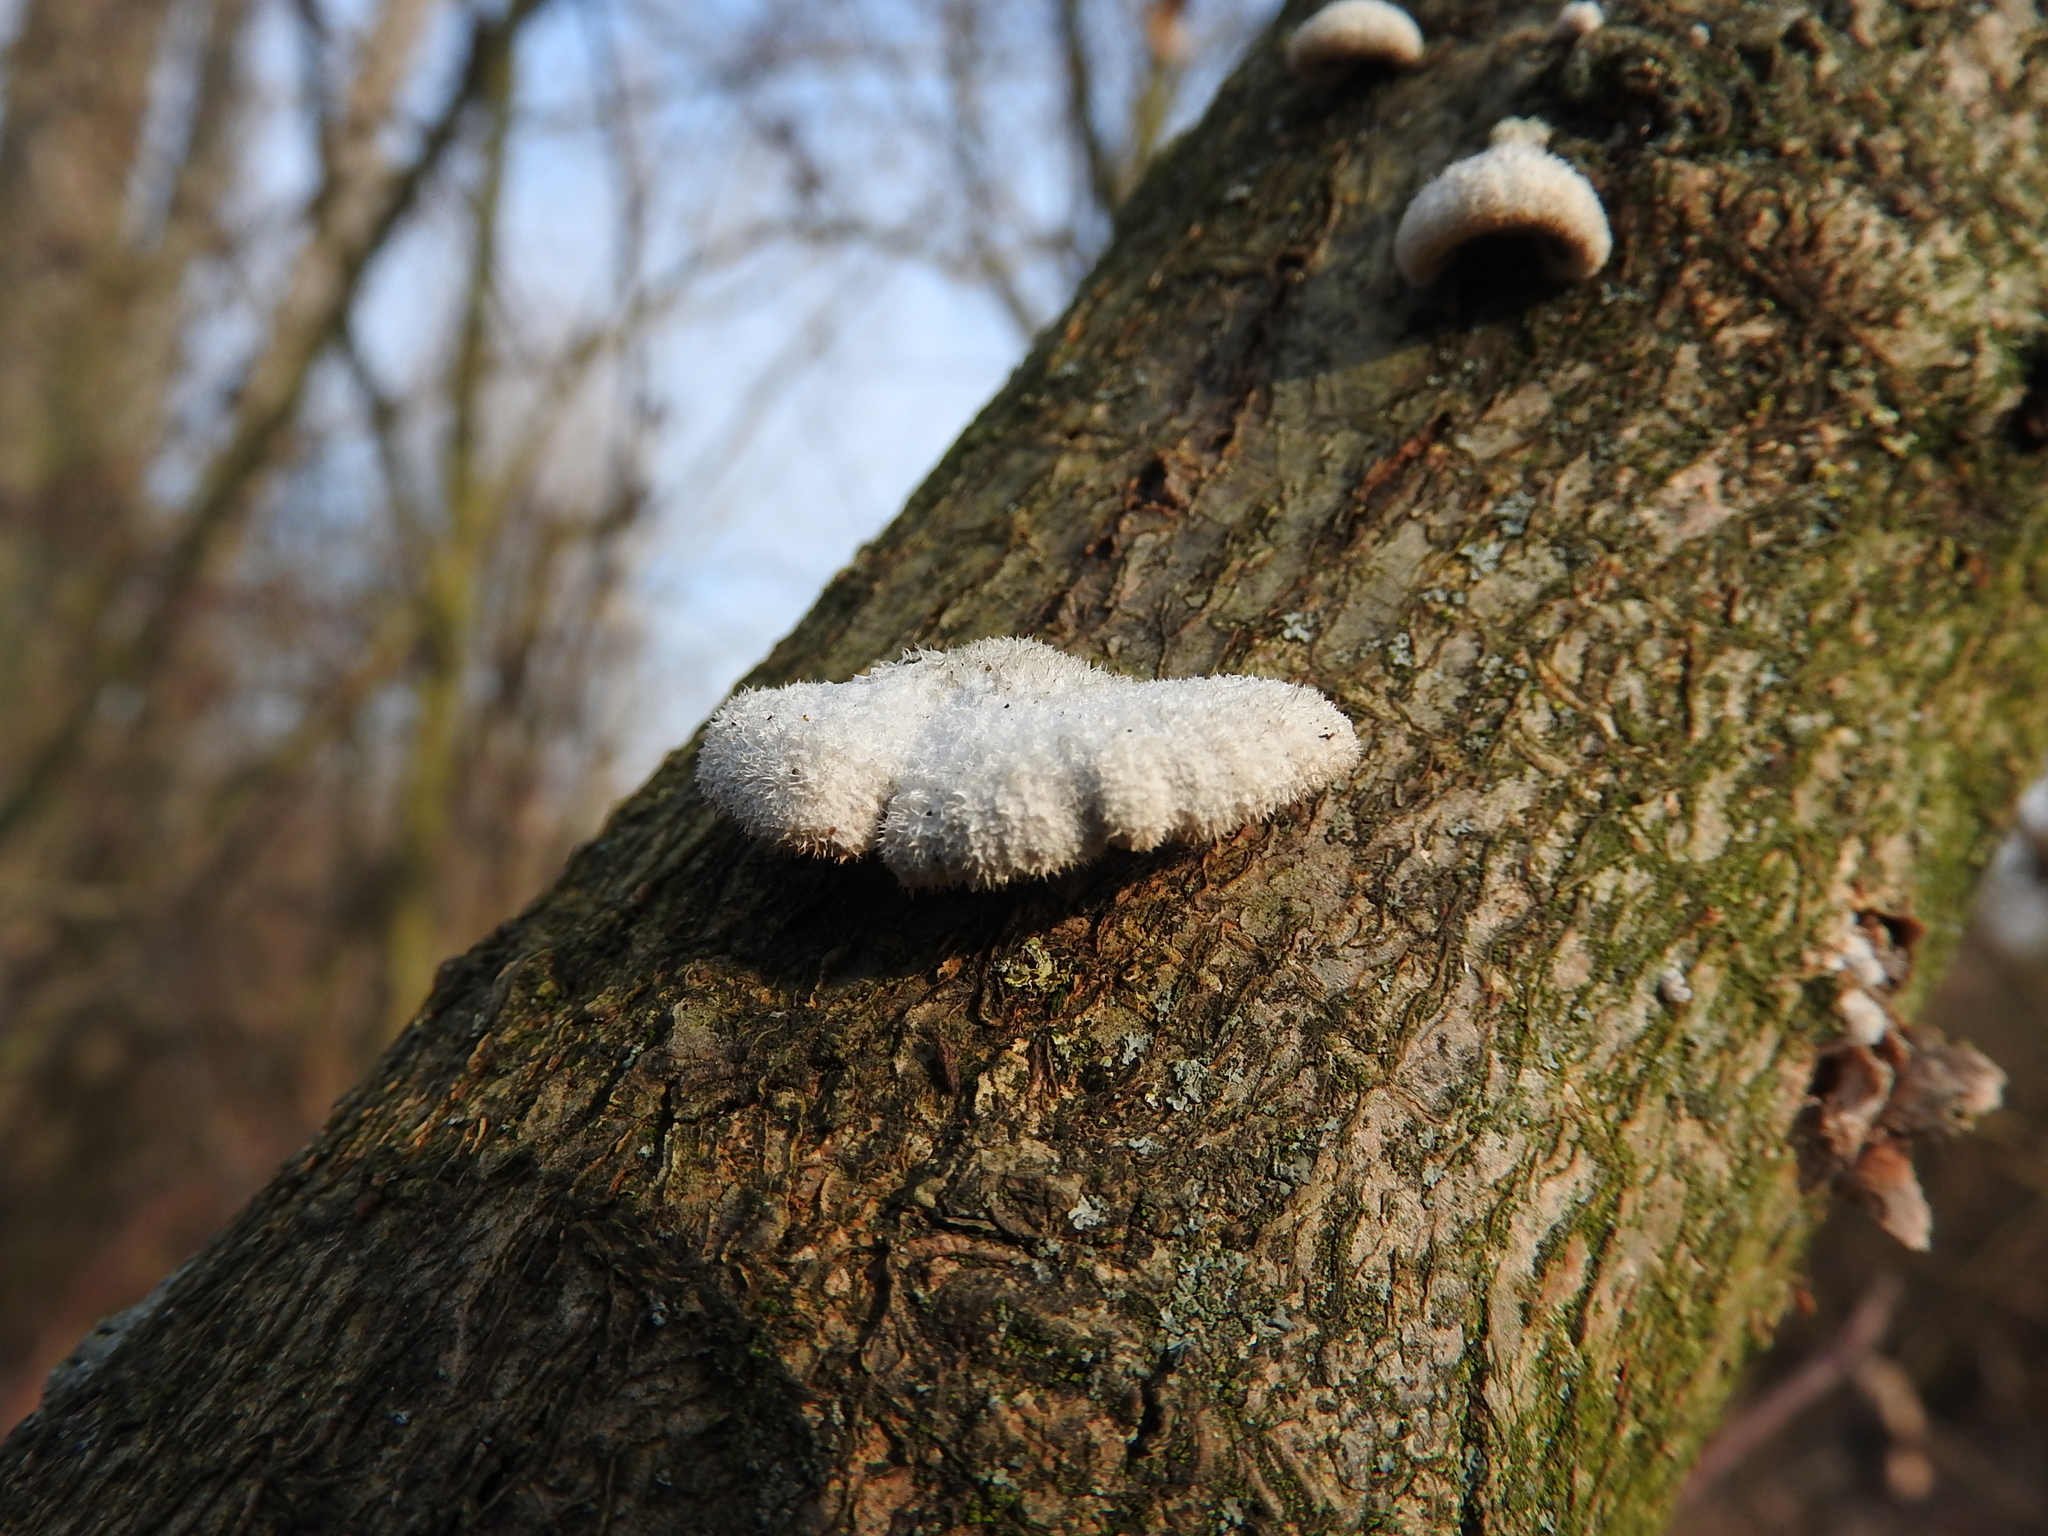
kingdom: Fungi
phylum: Basidiomycota
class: Agaricomycetes
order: Agaricales
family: Schizophyllaceae
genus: Schizophyllum
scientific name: Schizophyllum commune
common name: Common porecrust
